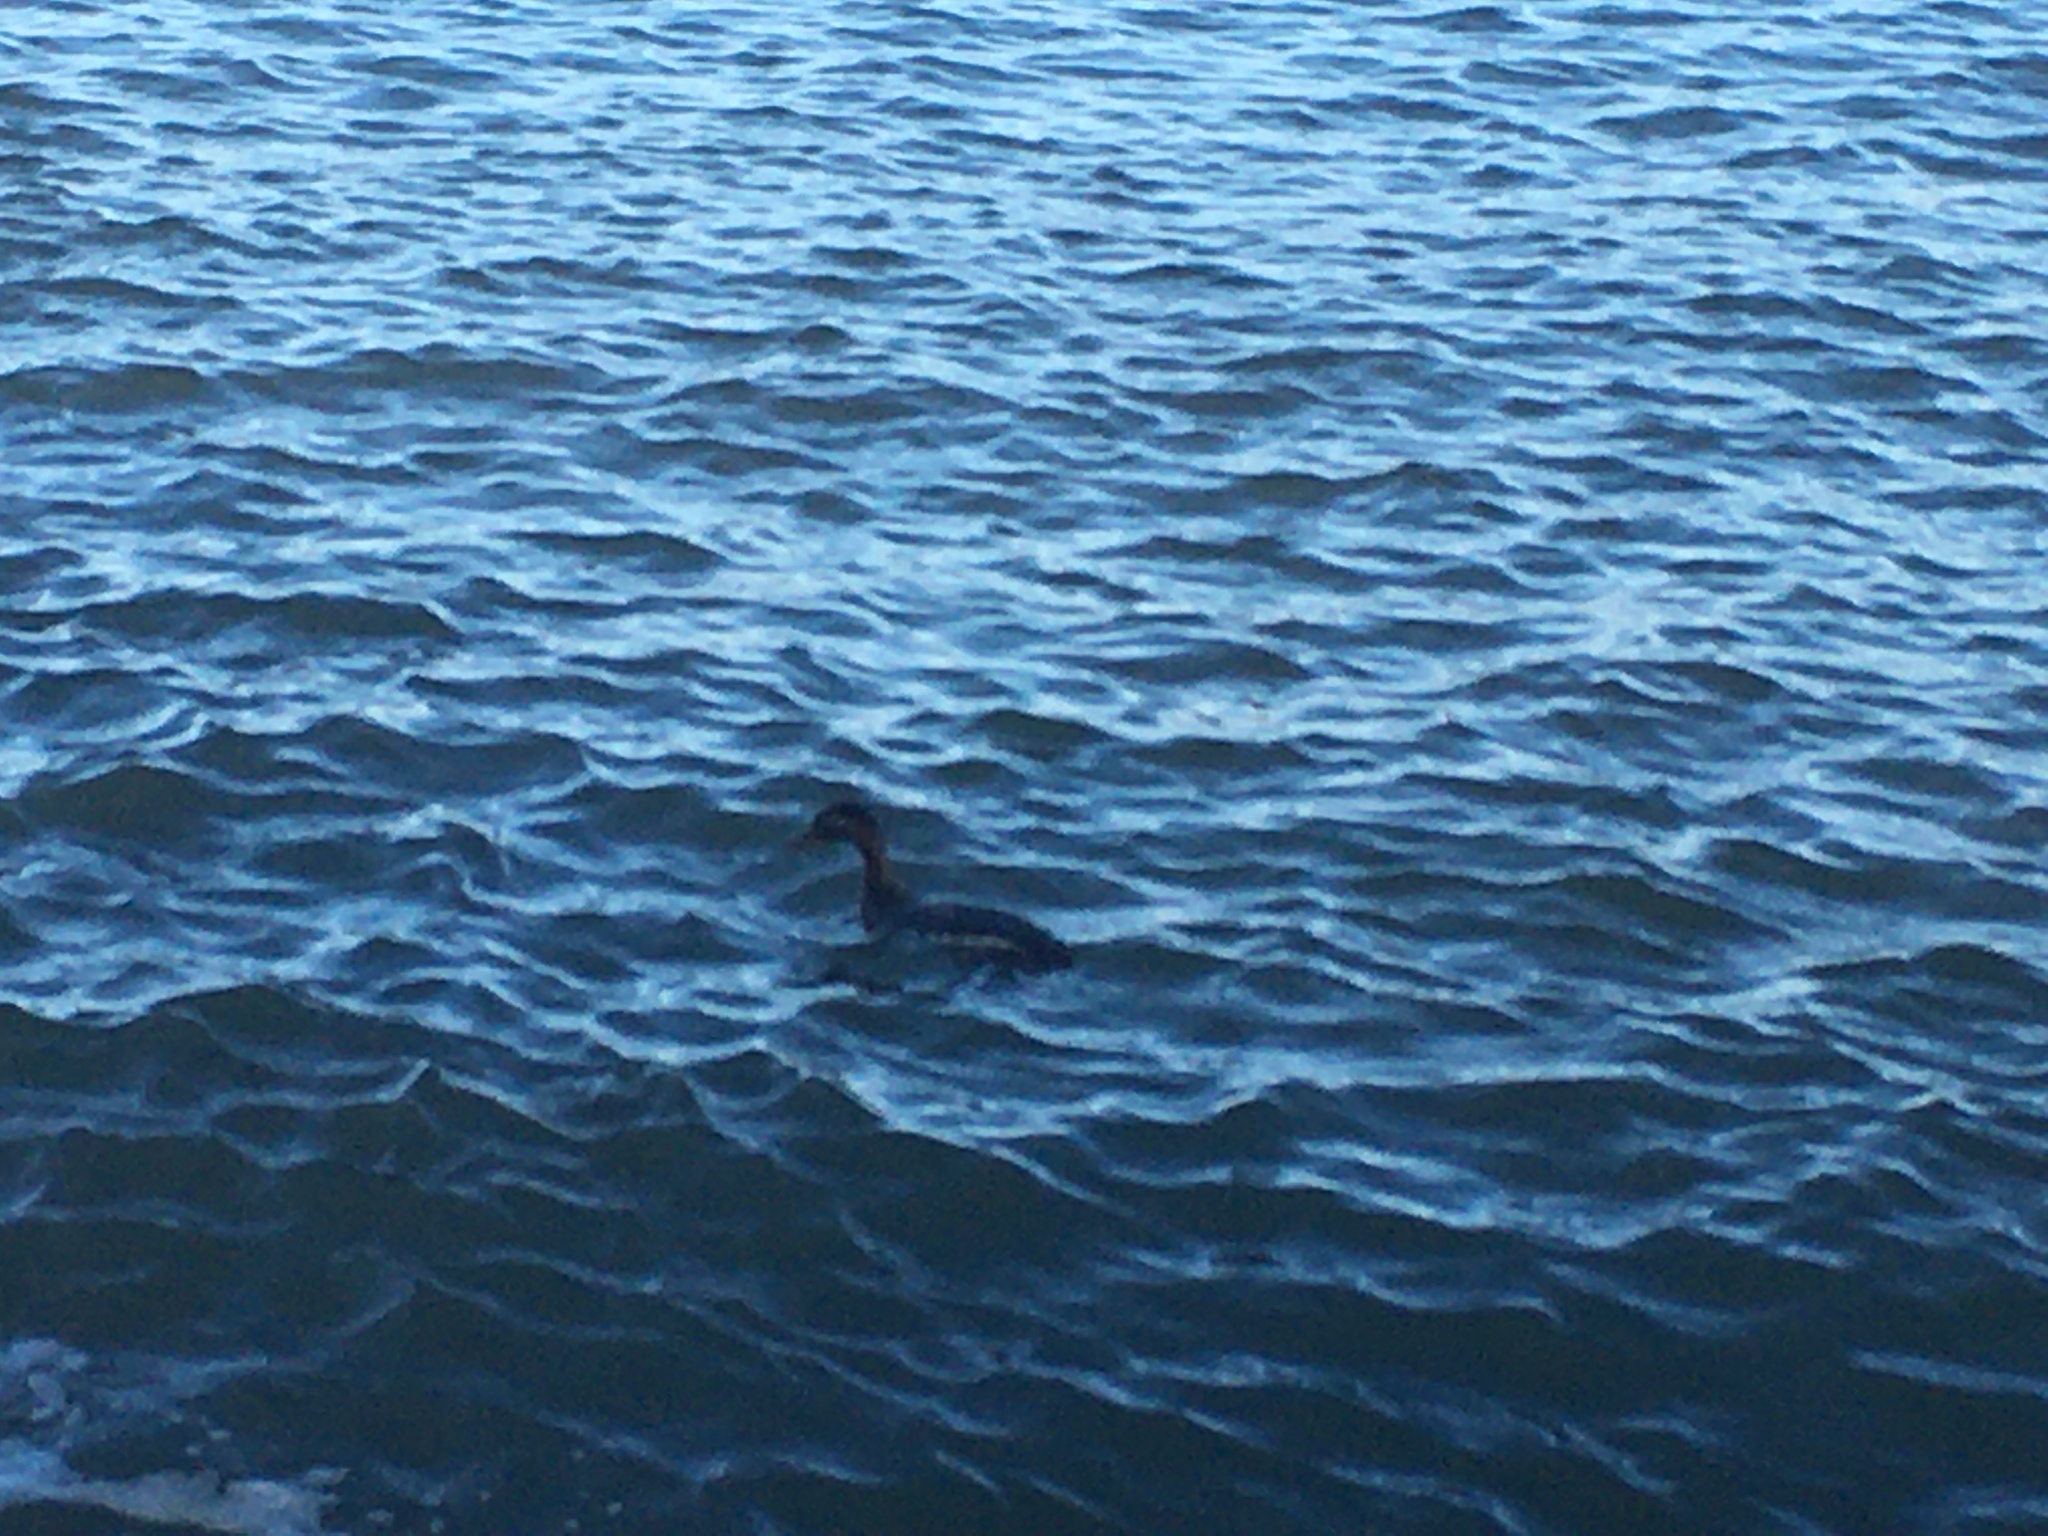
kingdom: Animalia
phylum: Chordata
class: Aves
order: Podicipediformes
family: Podicipedidae
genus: Podiceps
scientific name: Podiceps grisegena
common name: Red-necked grebe
